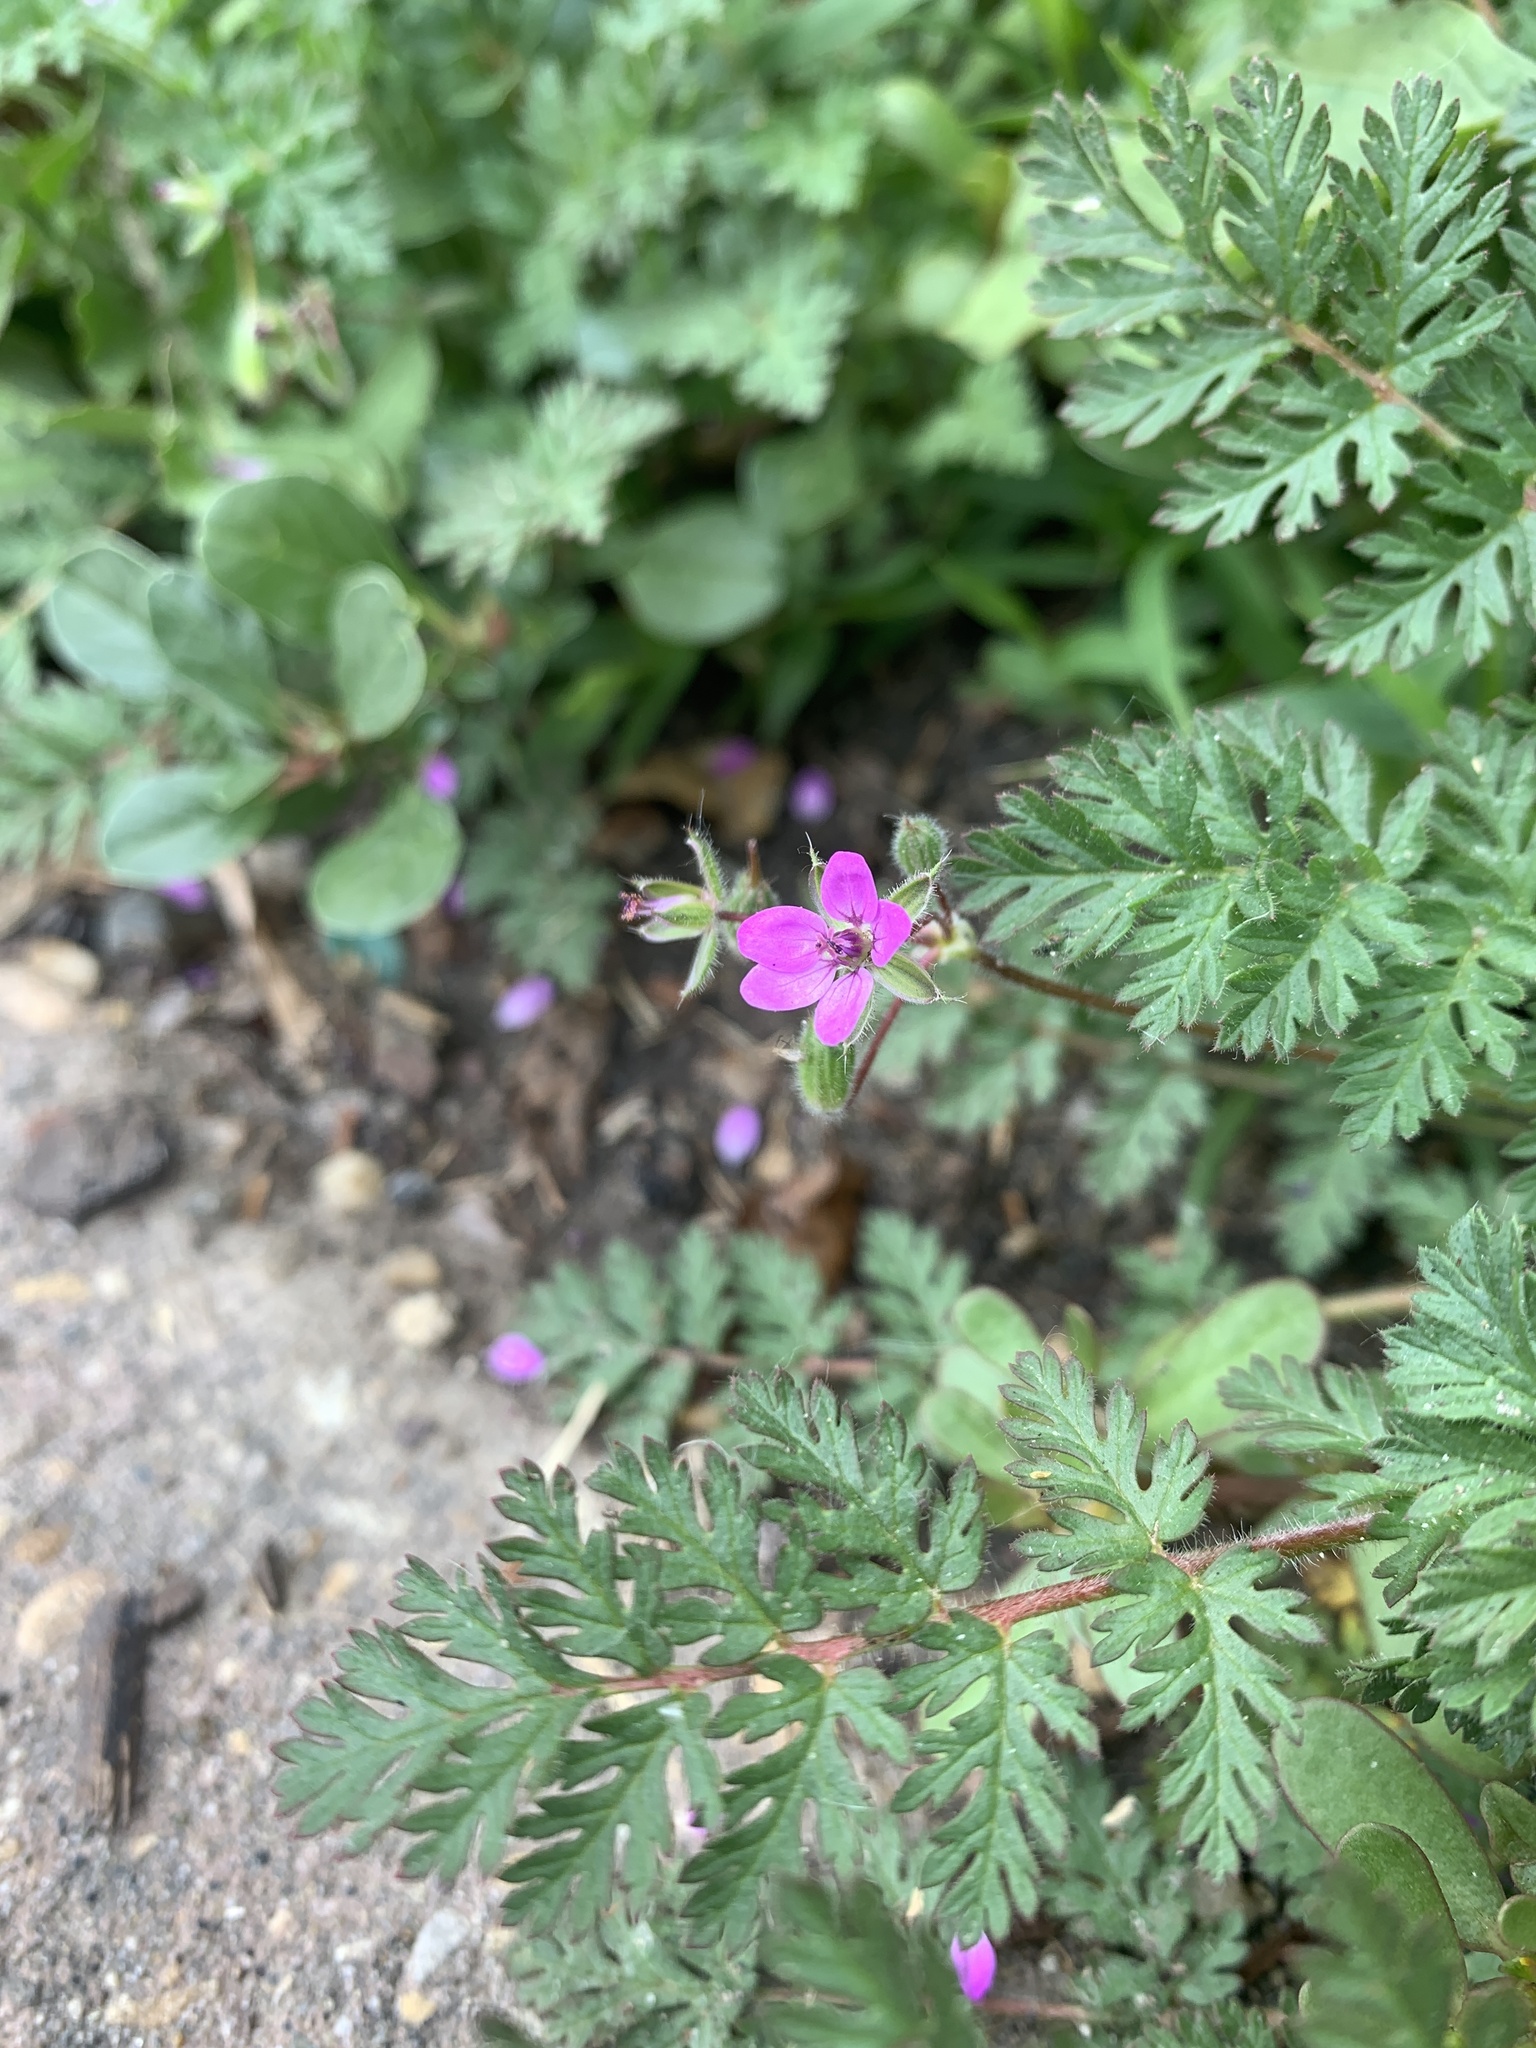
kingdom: Plantae
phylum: Tracheophyta
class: Magnoliopsida
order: Geraniales
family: Geraniaceae
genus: Erodium
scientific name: Erodium cicutarium
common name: Common stork's-bill
